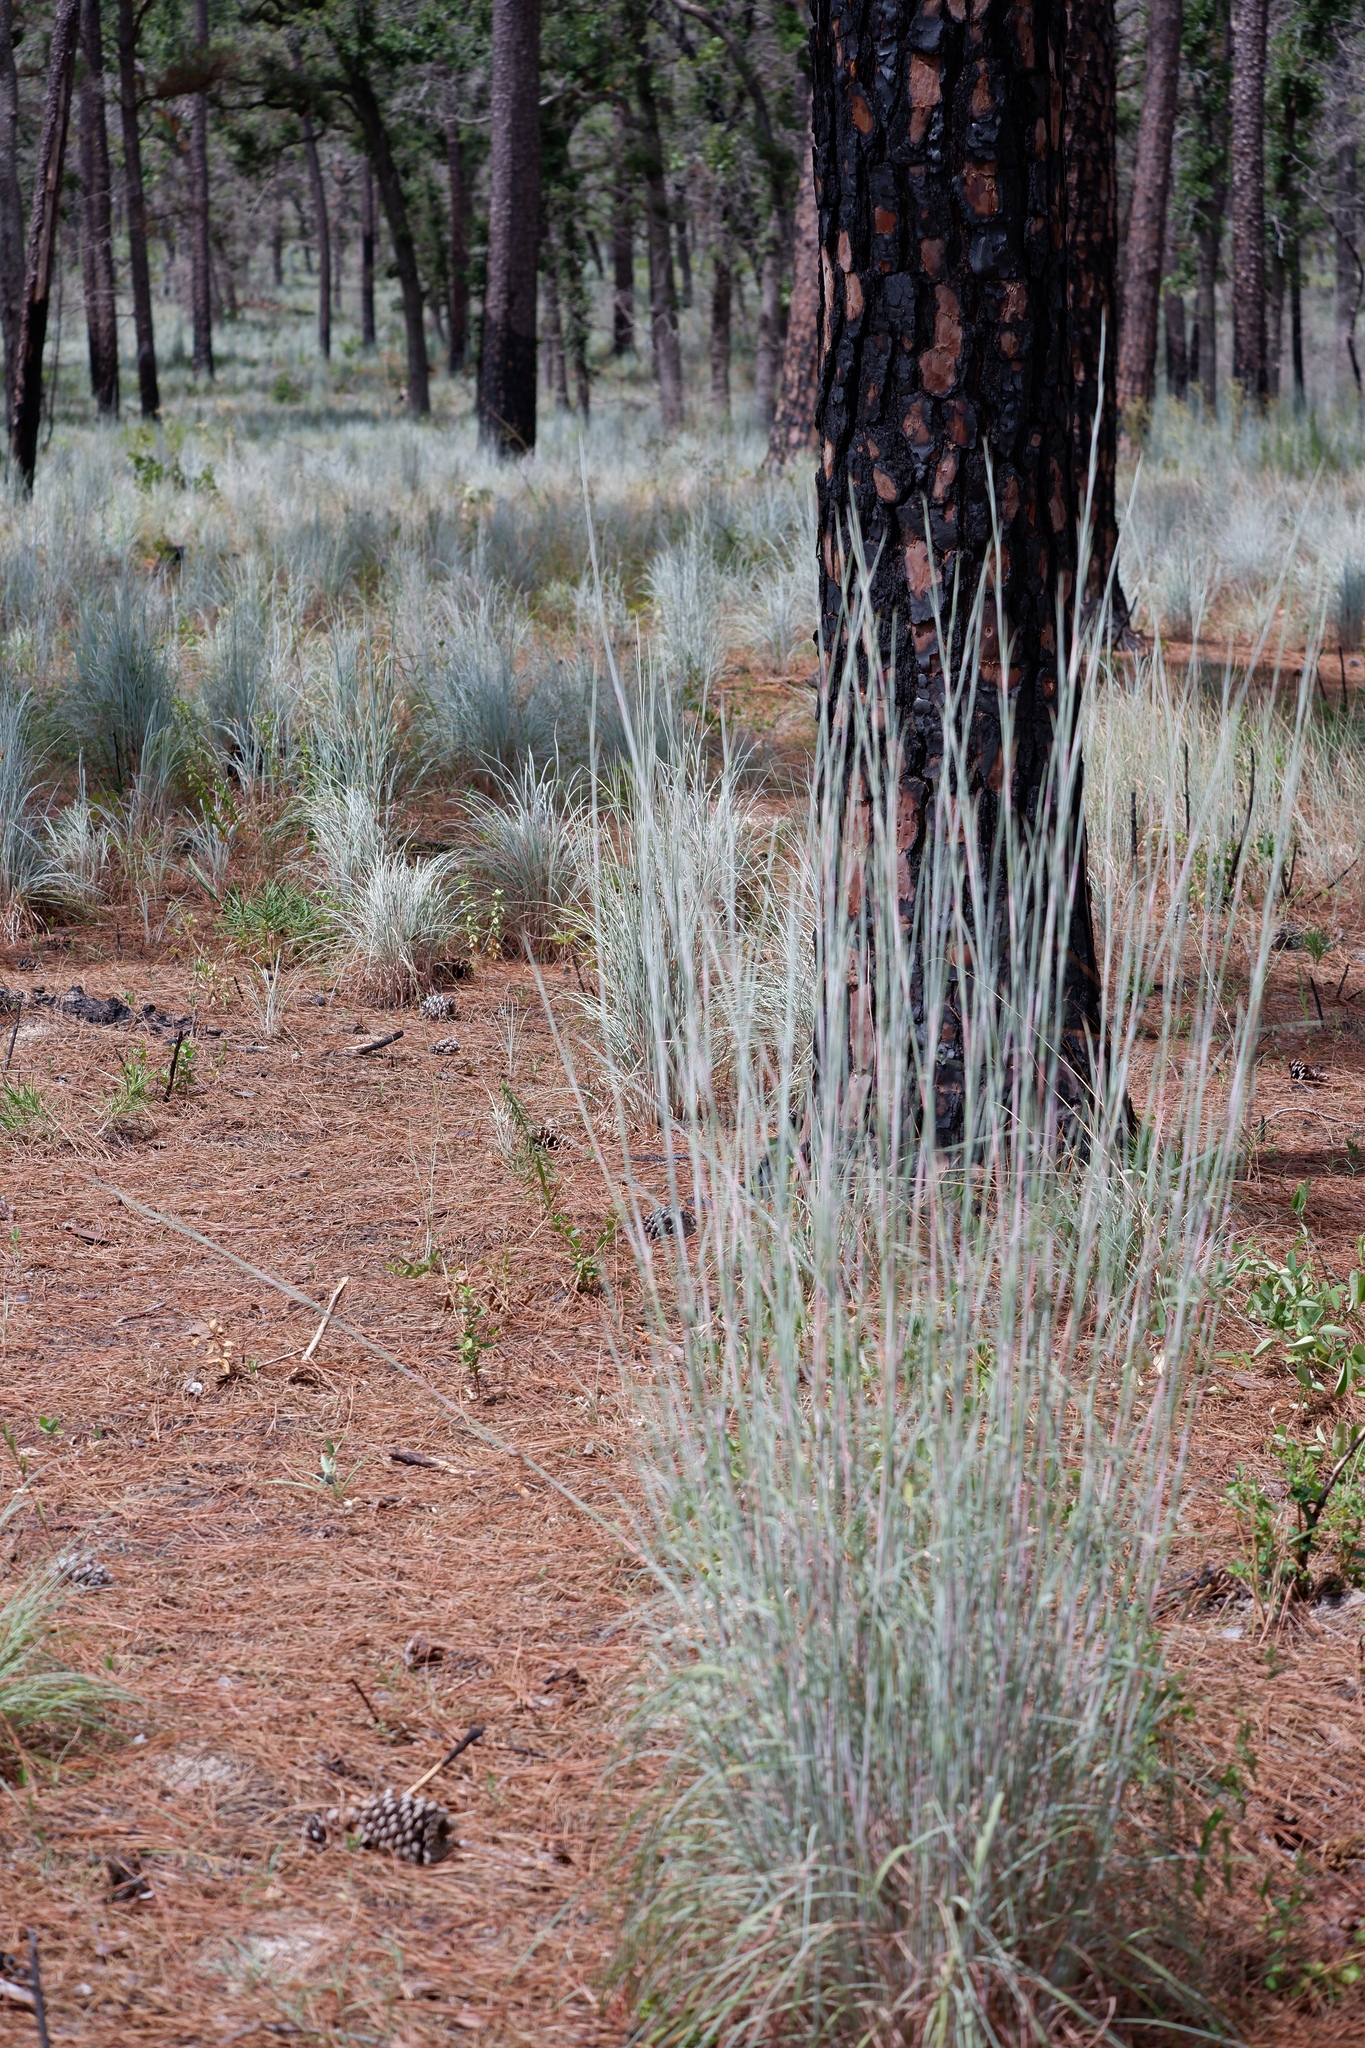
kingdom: Plantae
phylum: Tracheophyta
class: Liliopsida
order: Poales
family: Poaceae
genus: Schizachyrium
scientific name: Schizachyrium scoparium
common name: Little bluestem
